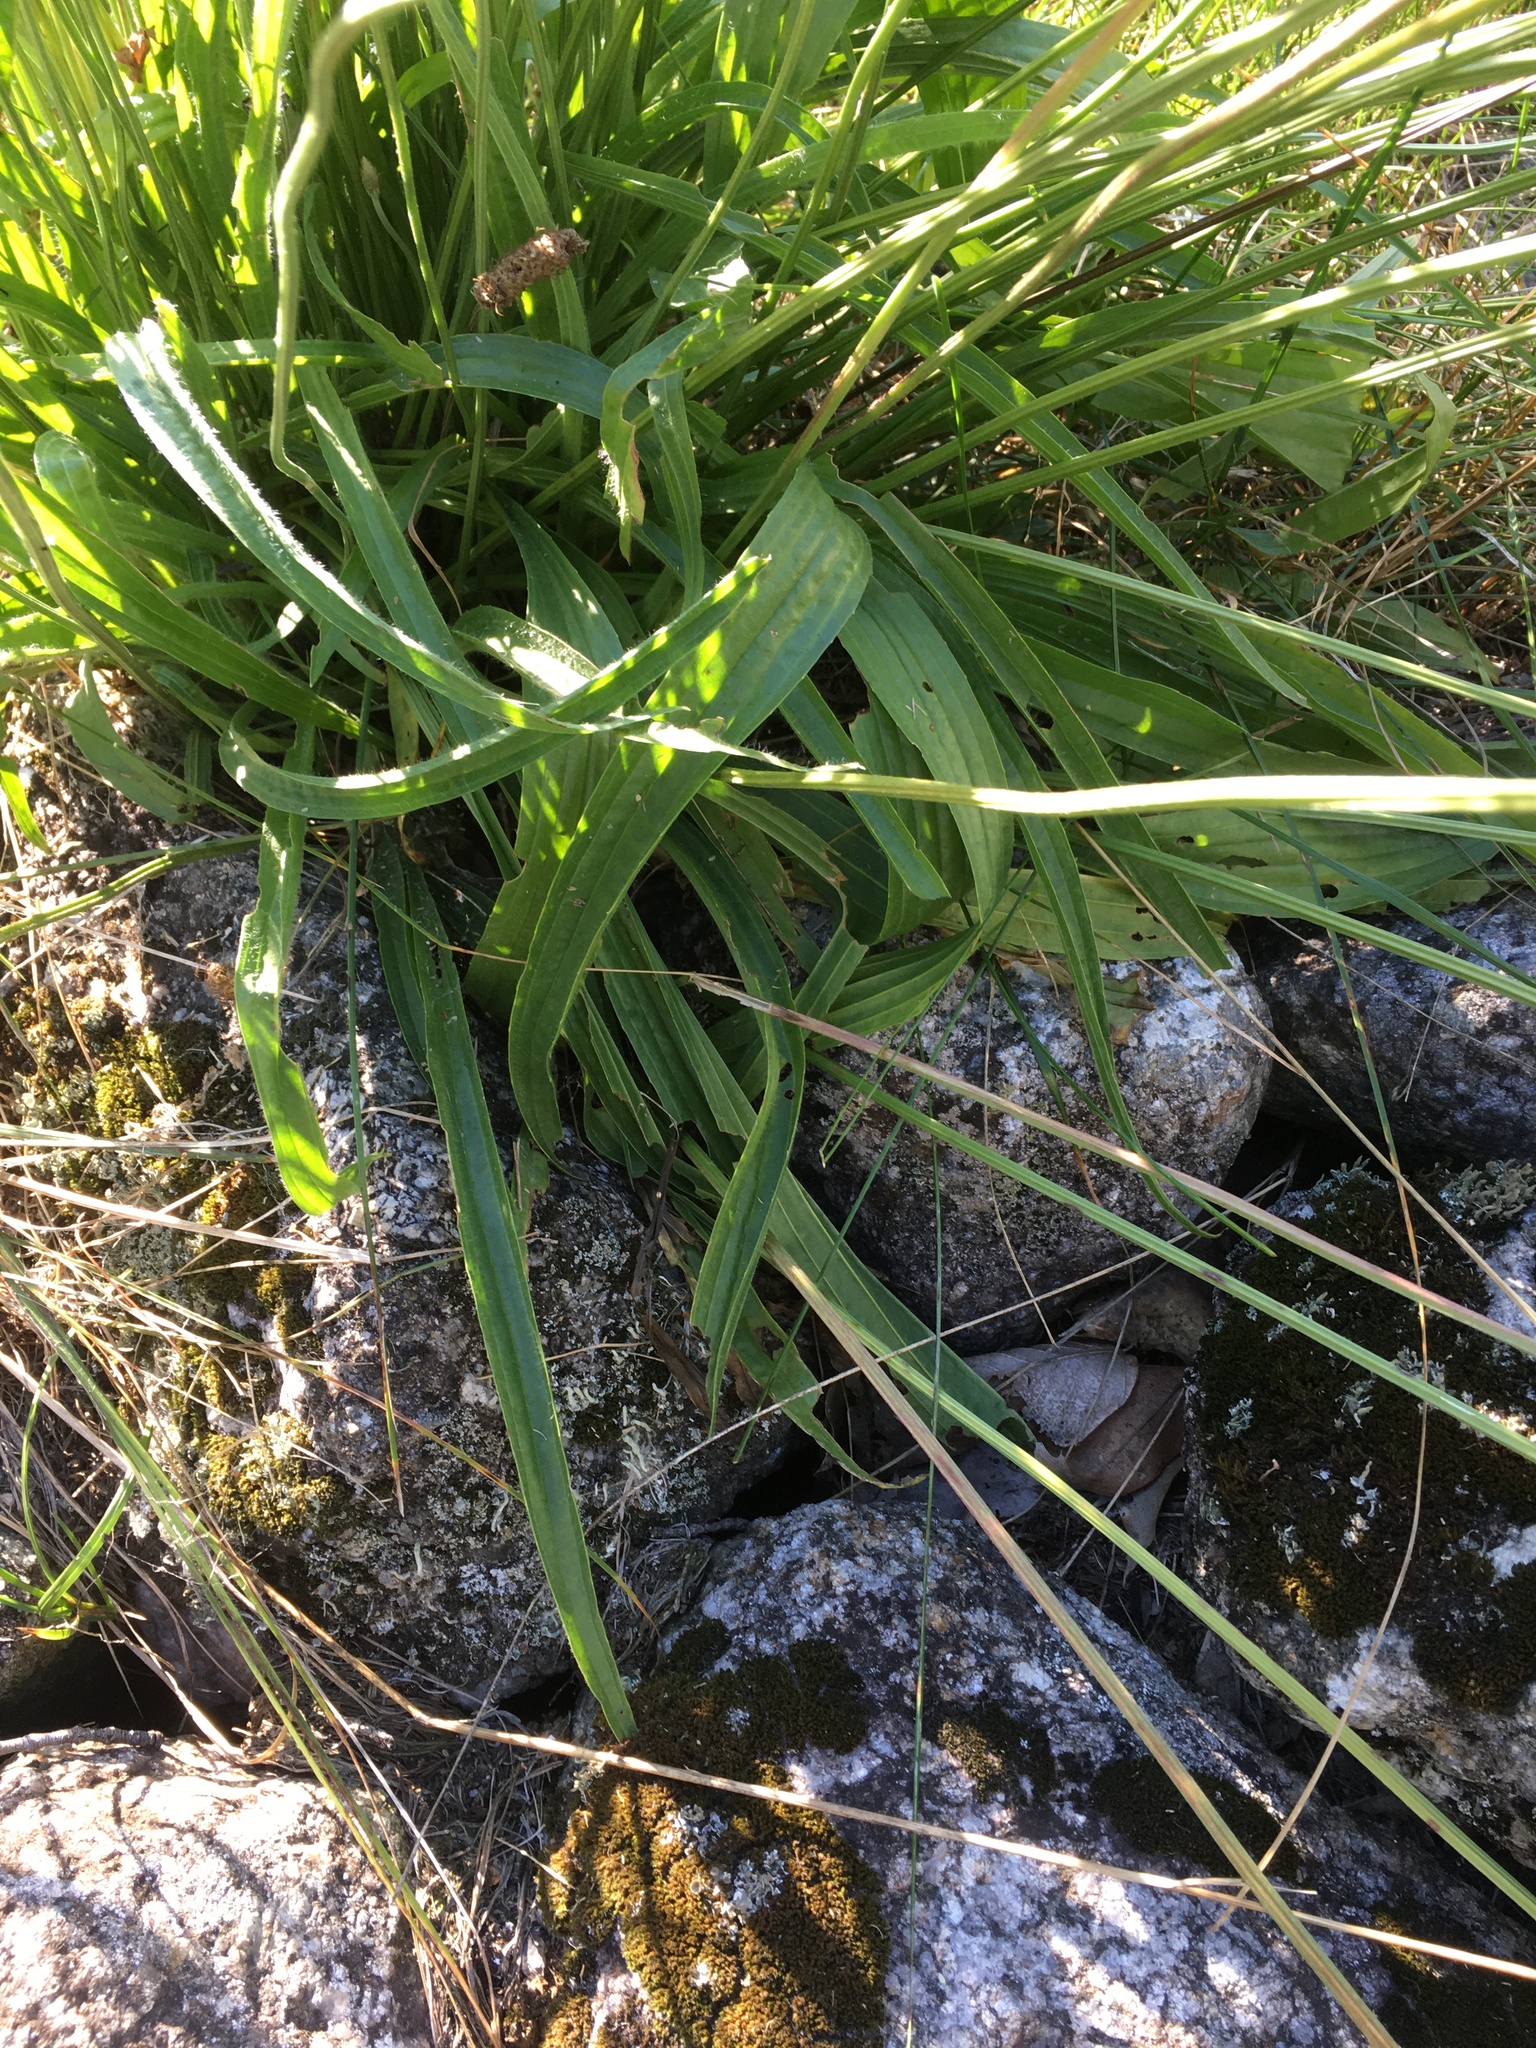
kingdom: Plantae
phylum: Tracheophyta
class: Magnoliopsida
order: Lamiales
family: Plantaginaceae
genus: Plantago
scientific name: Plantago lanceolata
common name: Ribwort plantain
